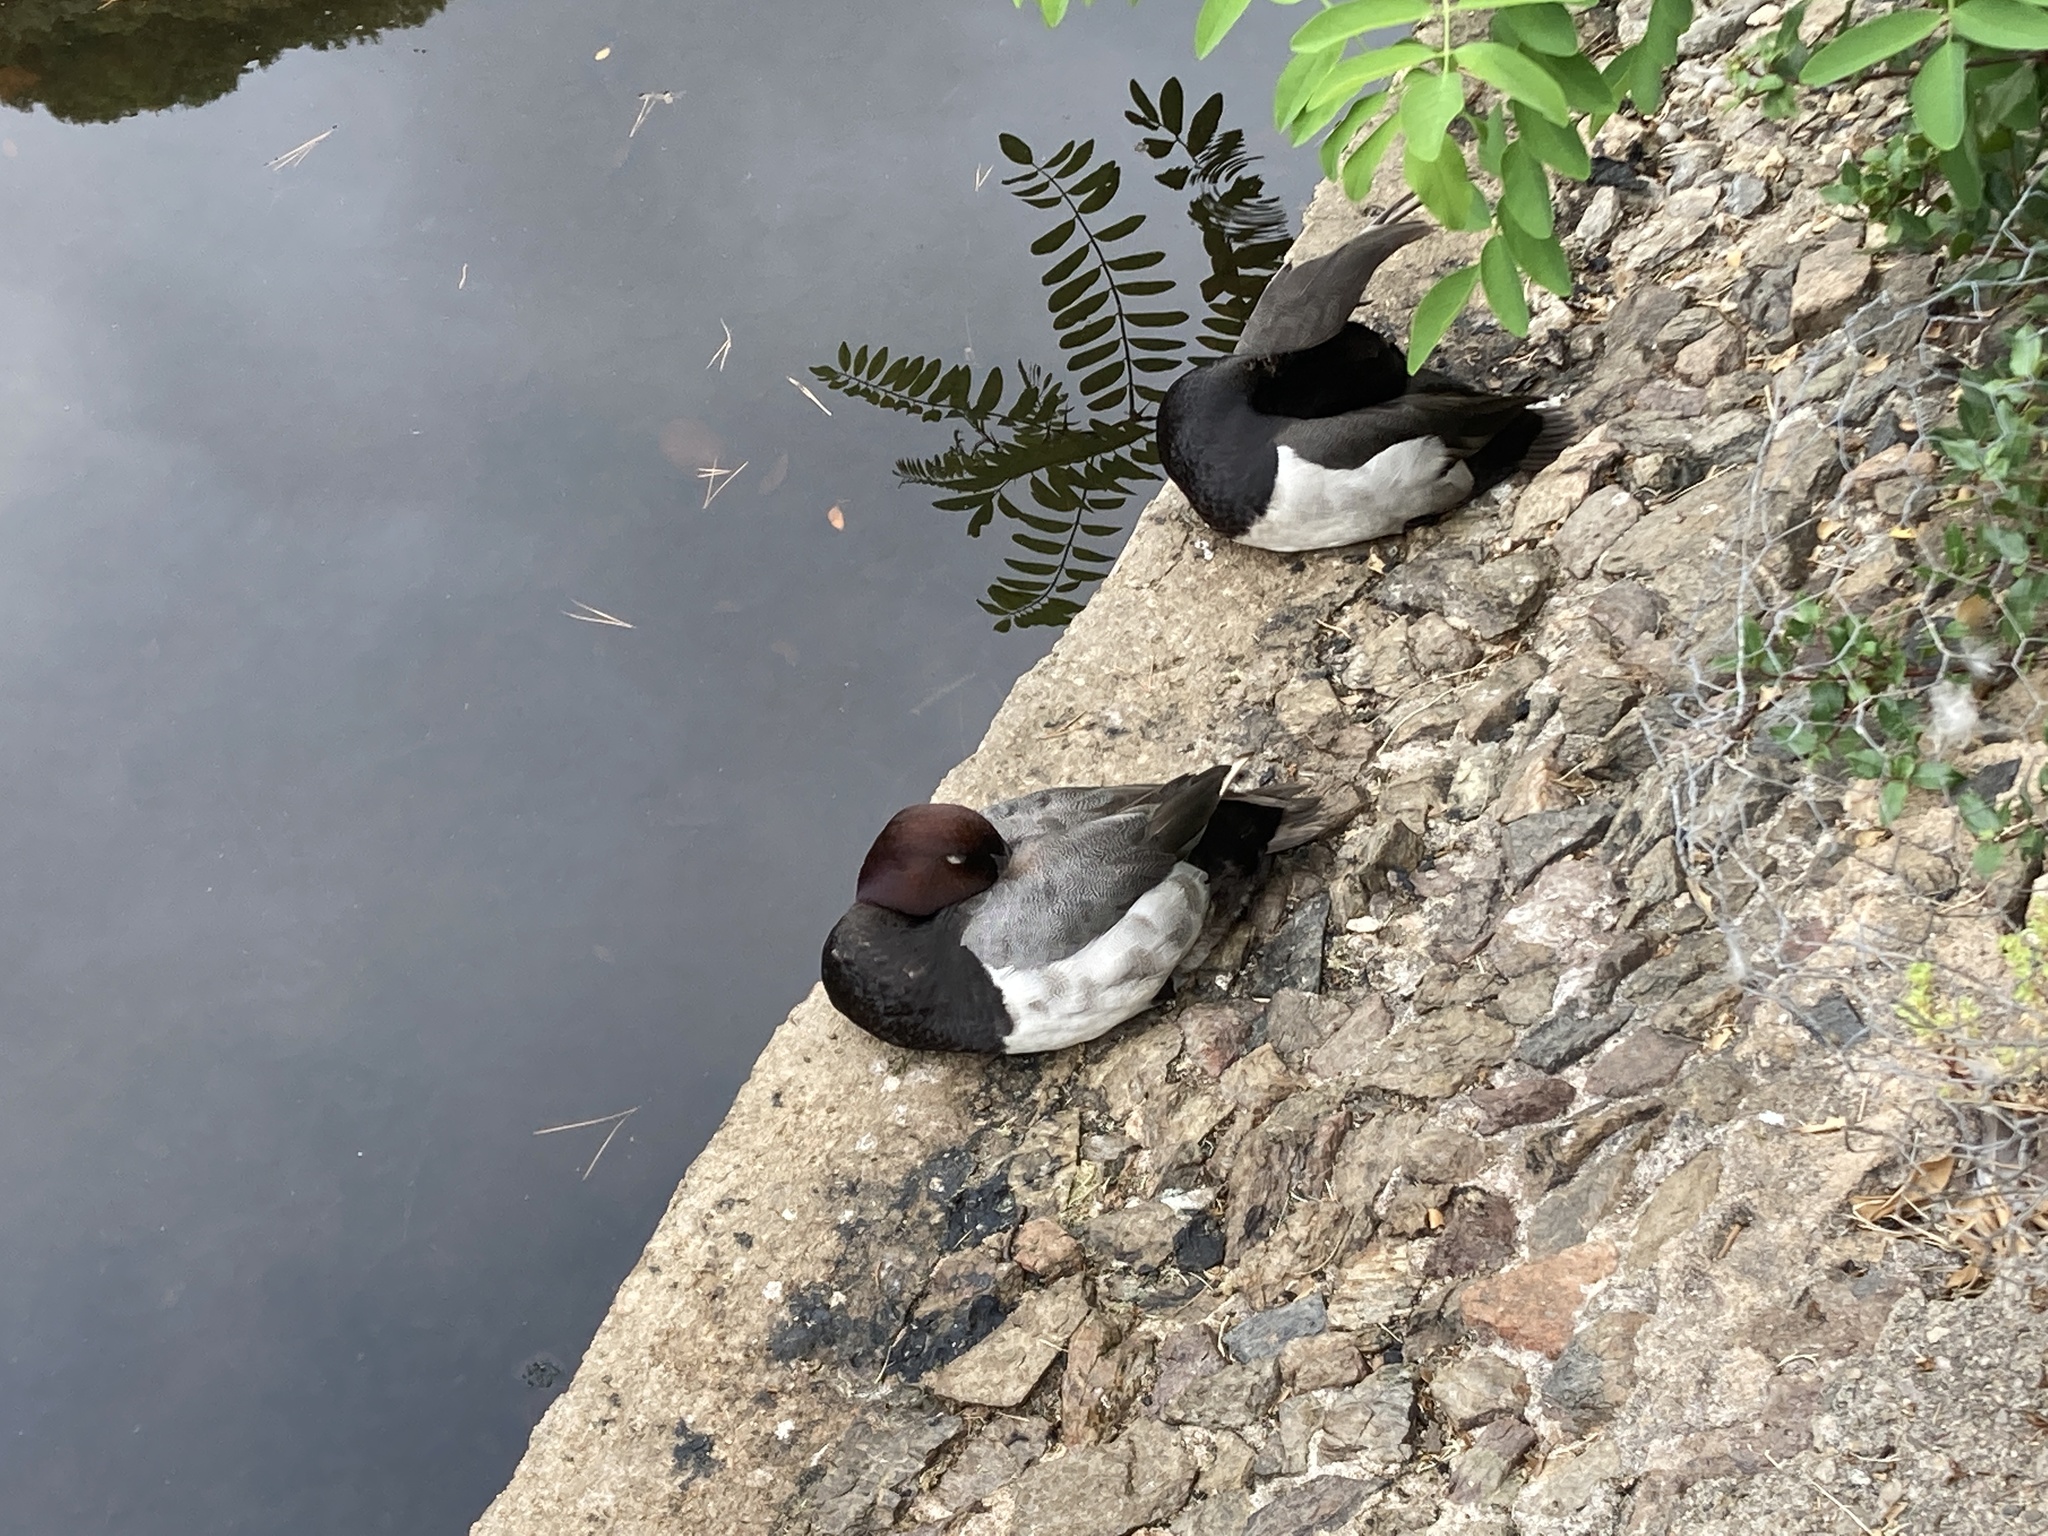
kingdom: Animalia
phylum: Chordata
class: Aves
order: Anseriformes
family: Anatidae
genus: Aythya
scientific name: Aythya
